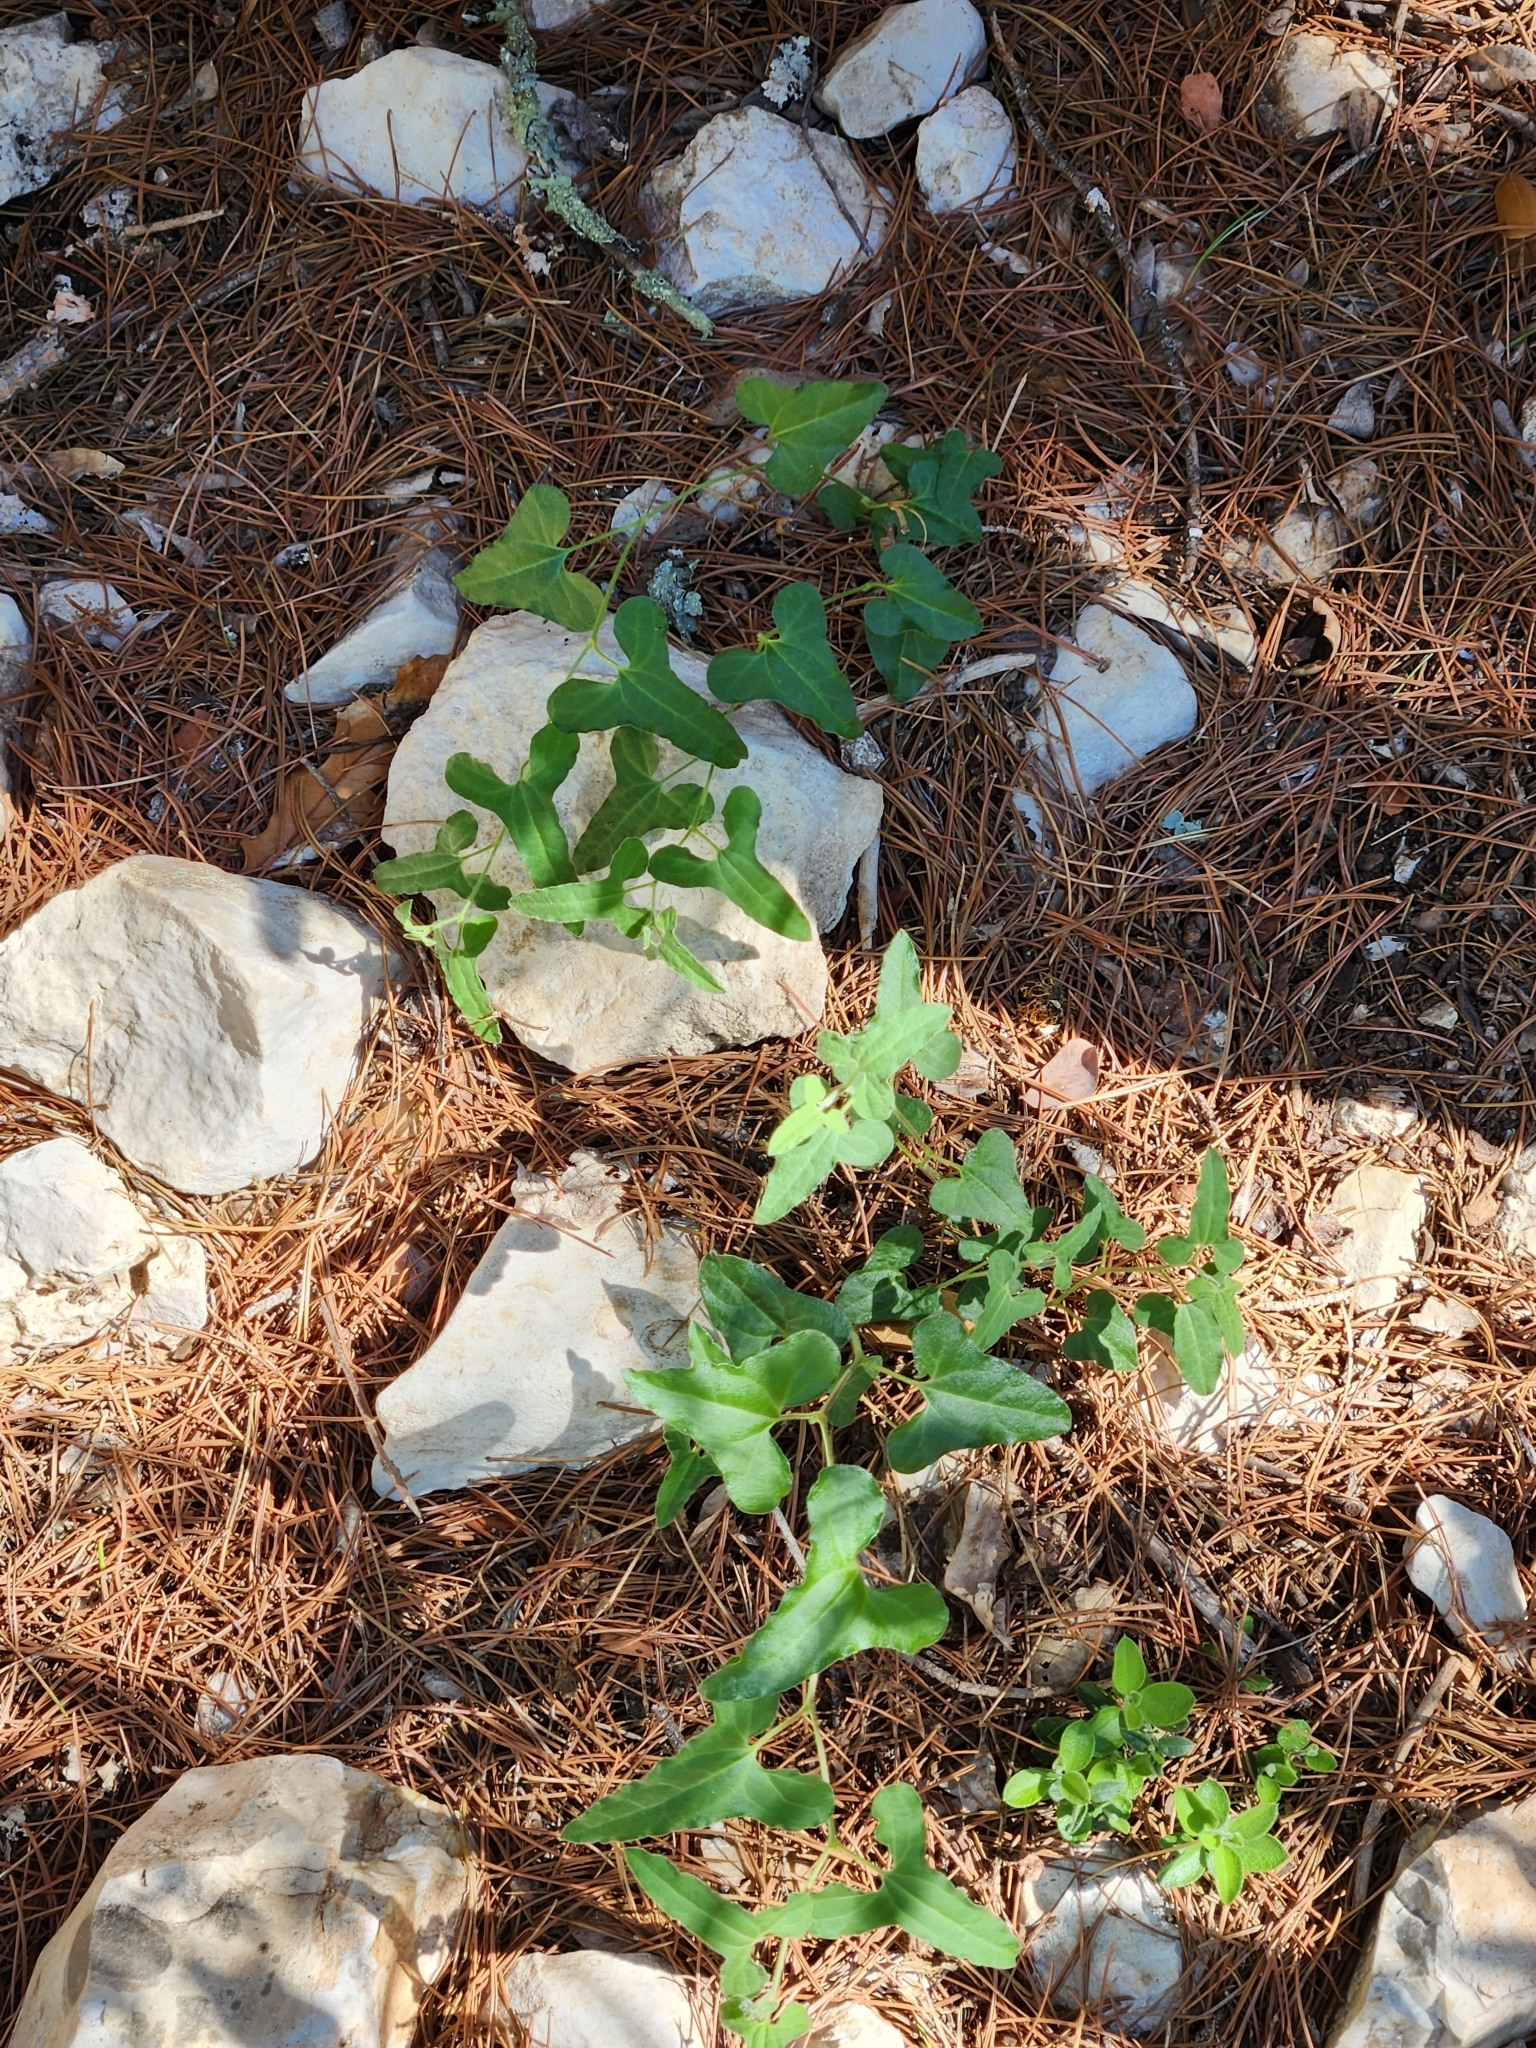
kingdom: Plantae
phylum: Tracheophyta
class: Magnoliopsida
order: Piperales
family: Aristolochiaceae
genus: Aristolochia
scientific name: Aristolochia coryi
